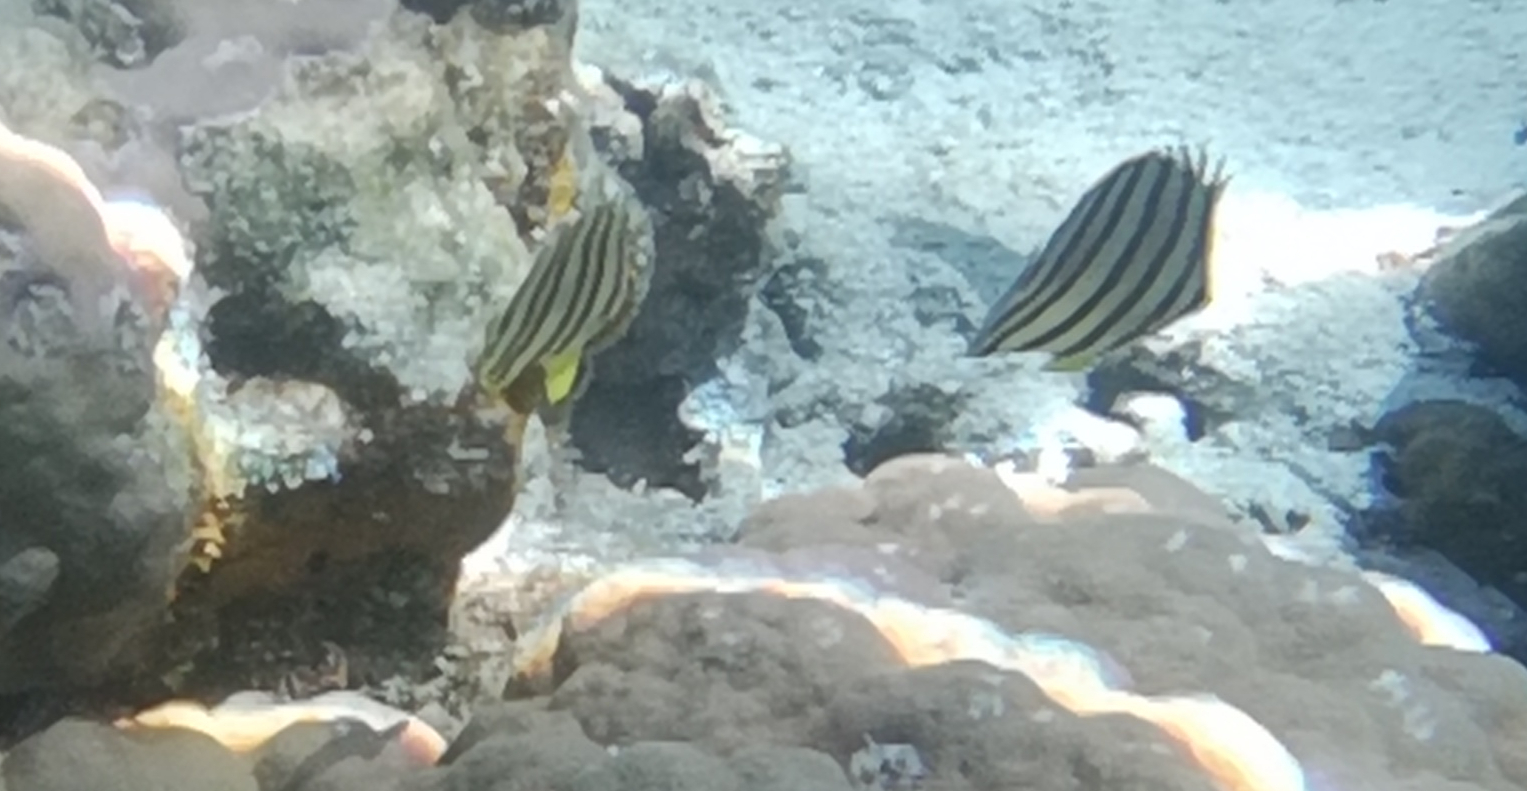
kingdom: Animalia
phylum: Chordata
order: Perciformes
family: Chaetodontidae
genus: Chaetodon
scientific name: Chaetodon octofasciatus
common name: Eightband butterflyfish
